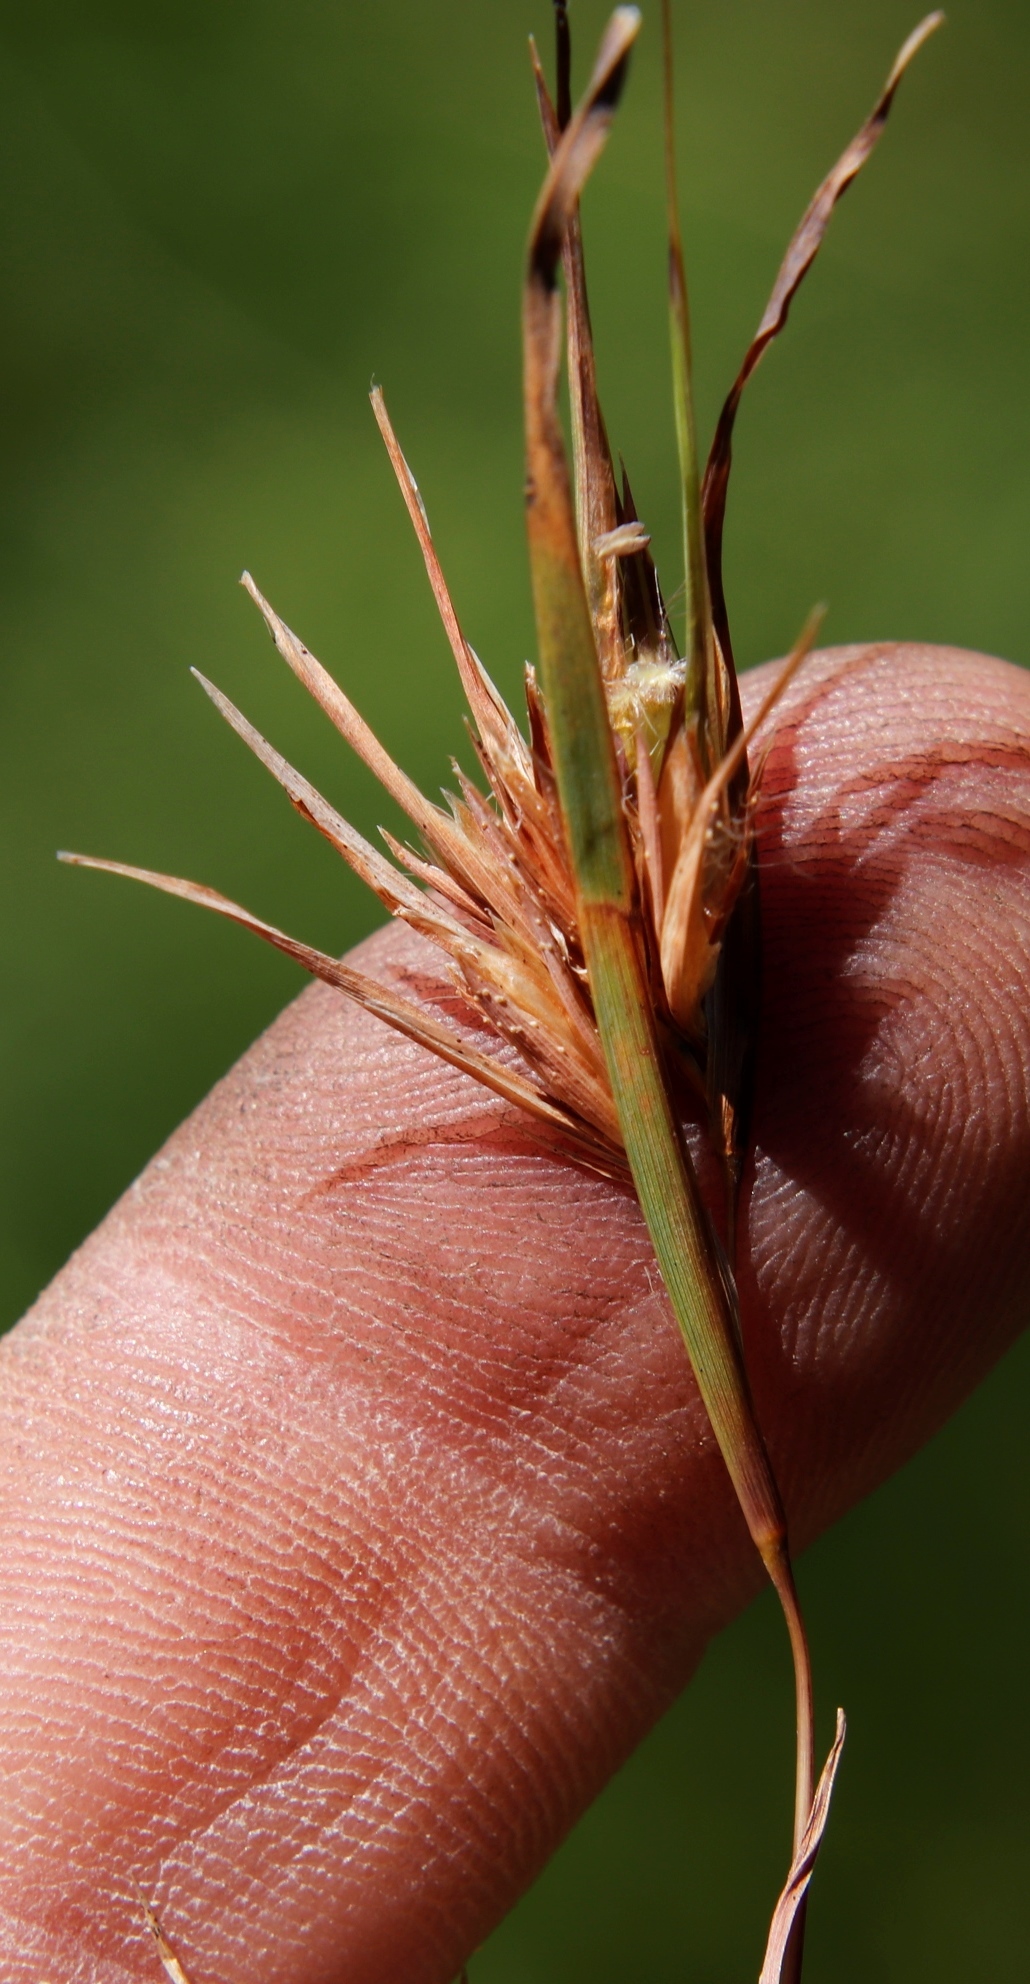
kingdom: Plantae
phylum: Tracheophyta
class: Liliopsida
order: Poales
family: Poaceae
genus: Themeda
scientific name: Themeda triandra
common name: Kangaroo grass
